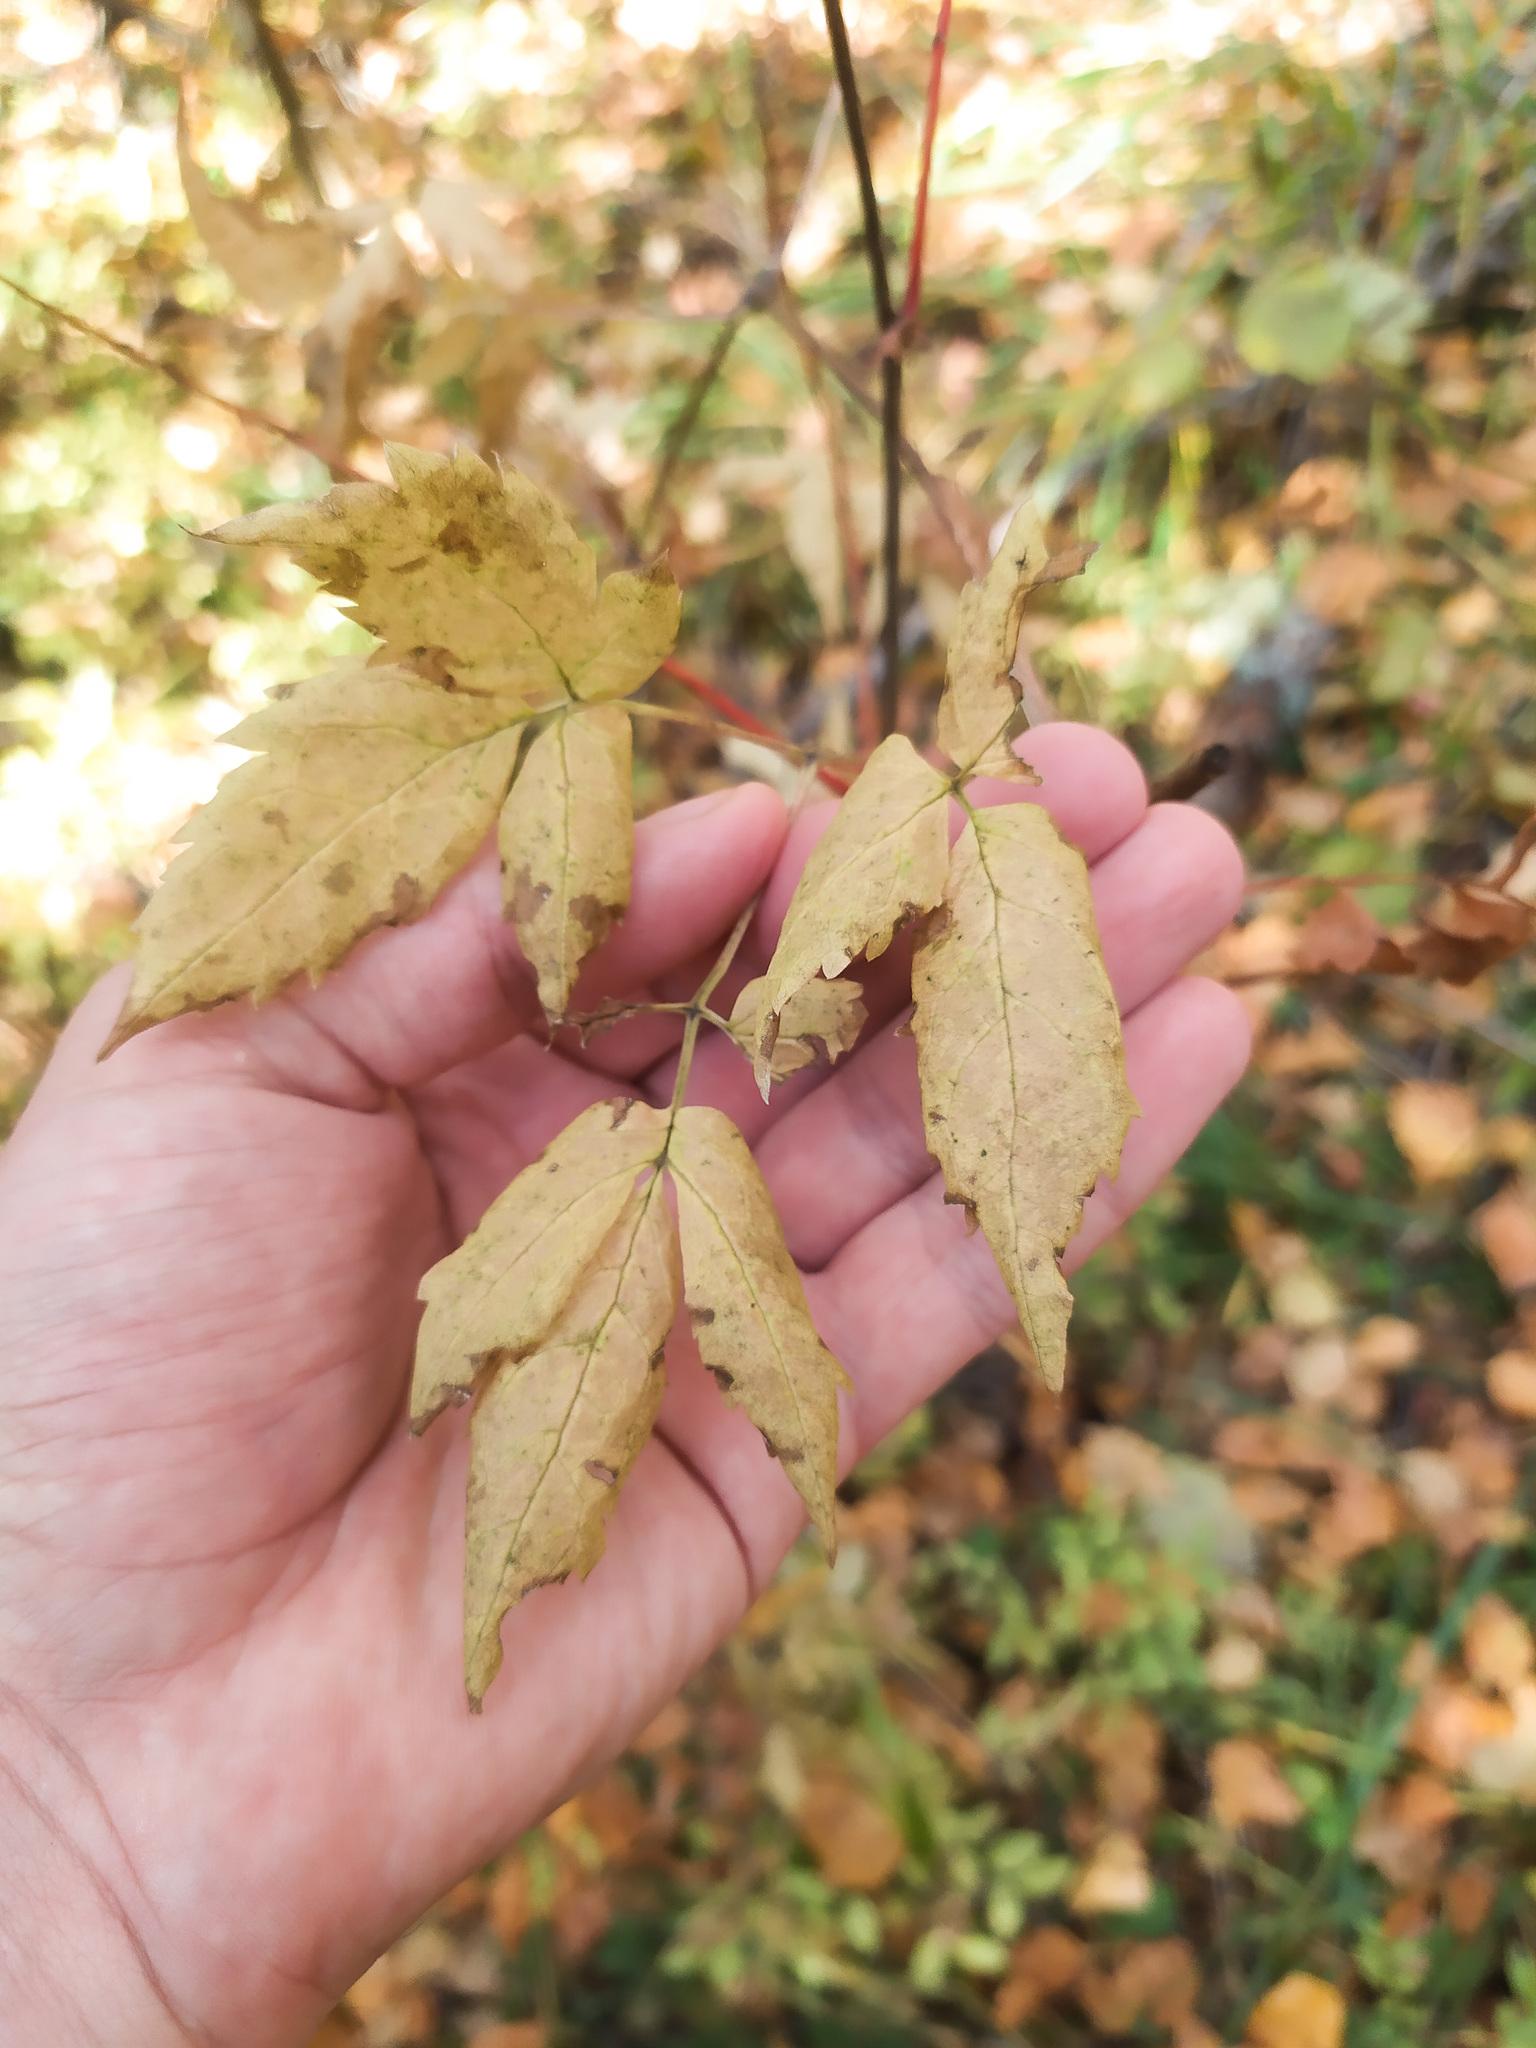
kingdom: Plantae
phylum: Tracheophyta
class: Magnoliopsida
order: Ranunculales
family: Ranunculaceae
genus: Clematis
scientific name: Clematis sibirica
